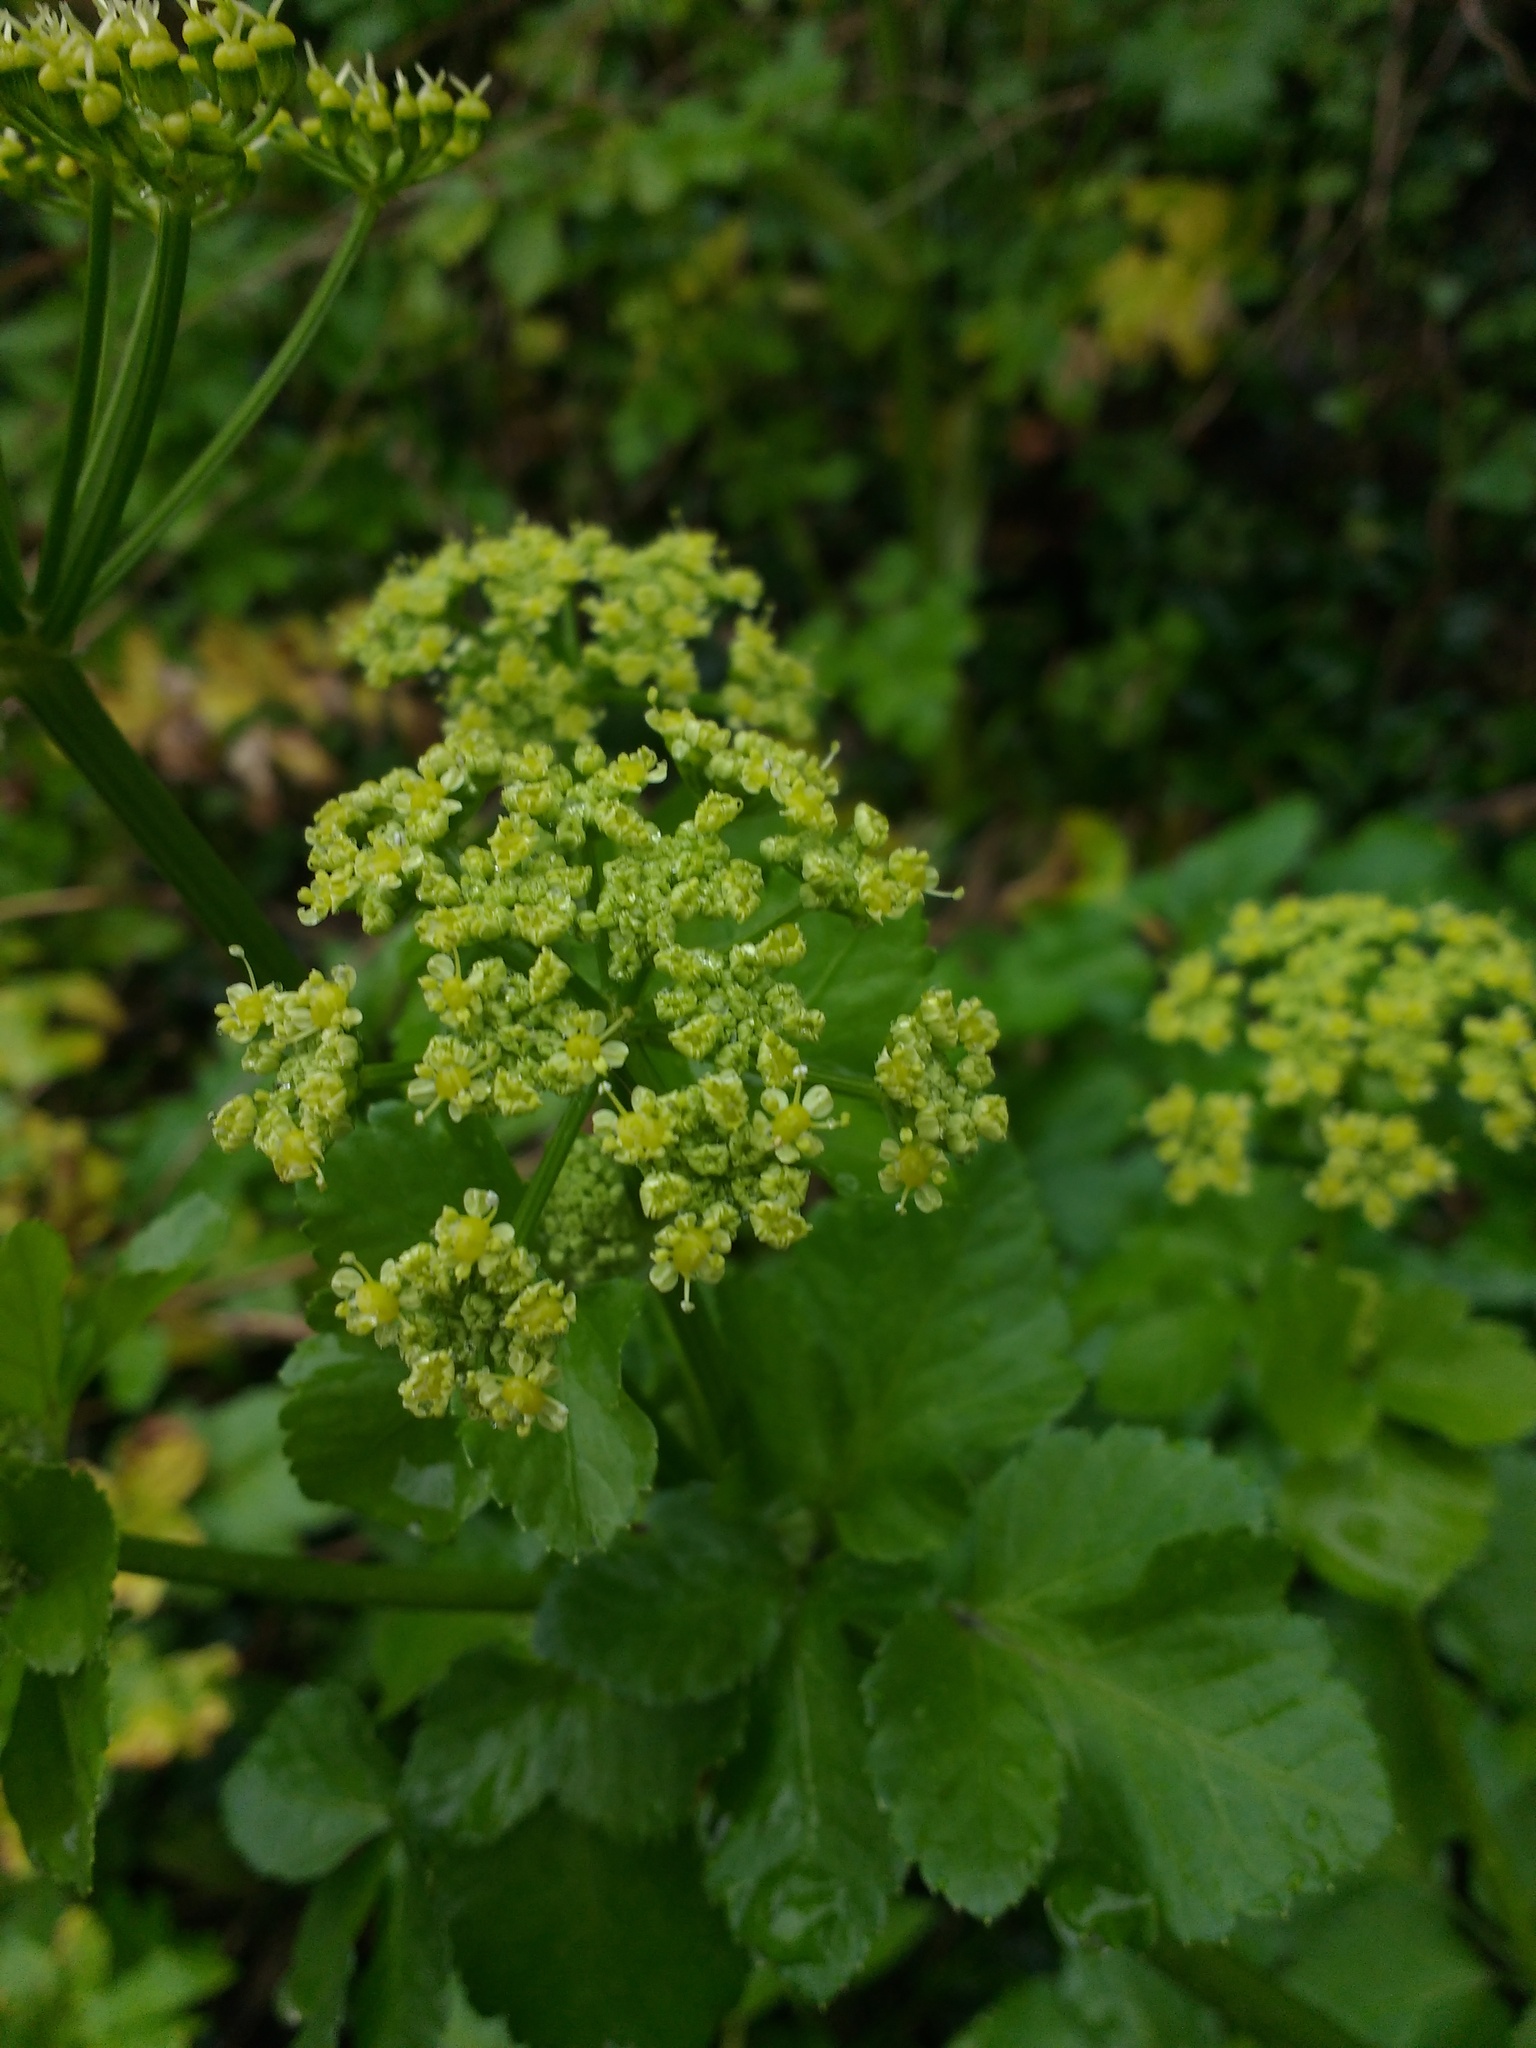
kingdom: Plantae
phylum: Tracheophyta
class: Magnoliopsida
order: Apiales
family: Apiaceae
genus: Smyrnium
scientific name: Smyrnium olusatrum
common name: Alexanders
